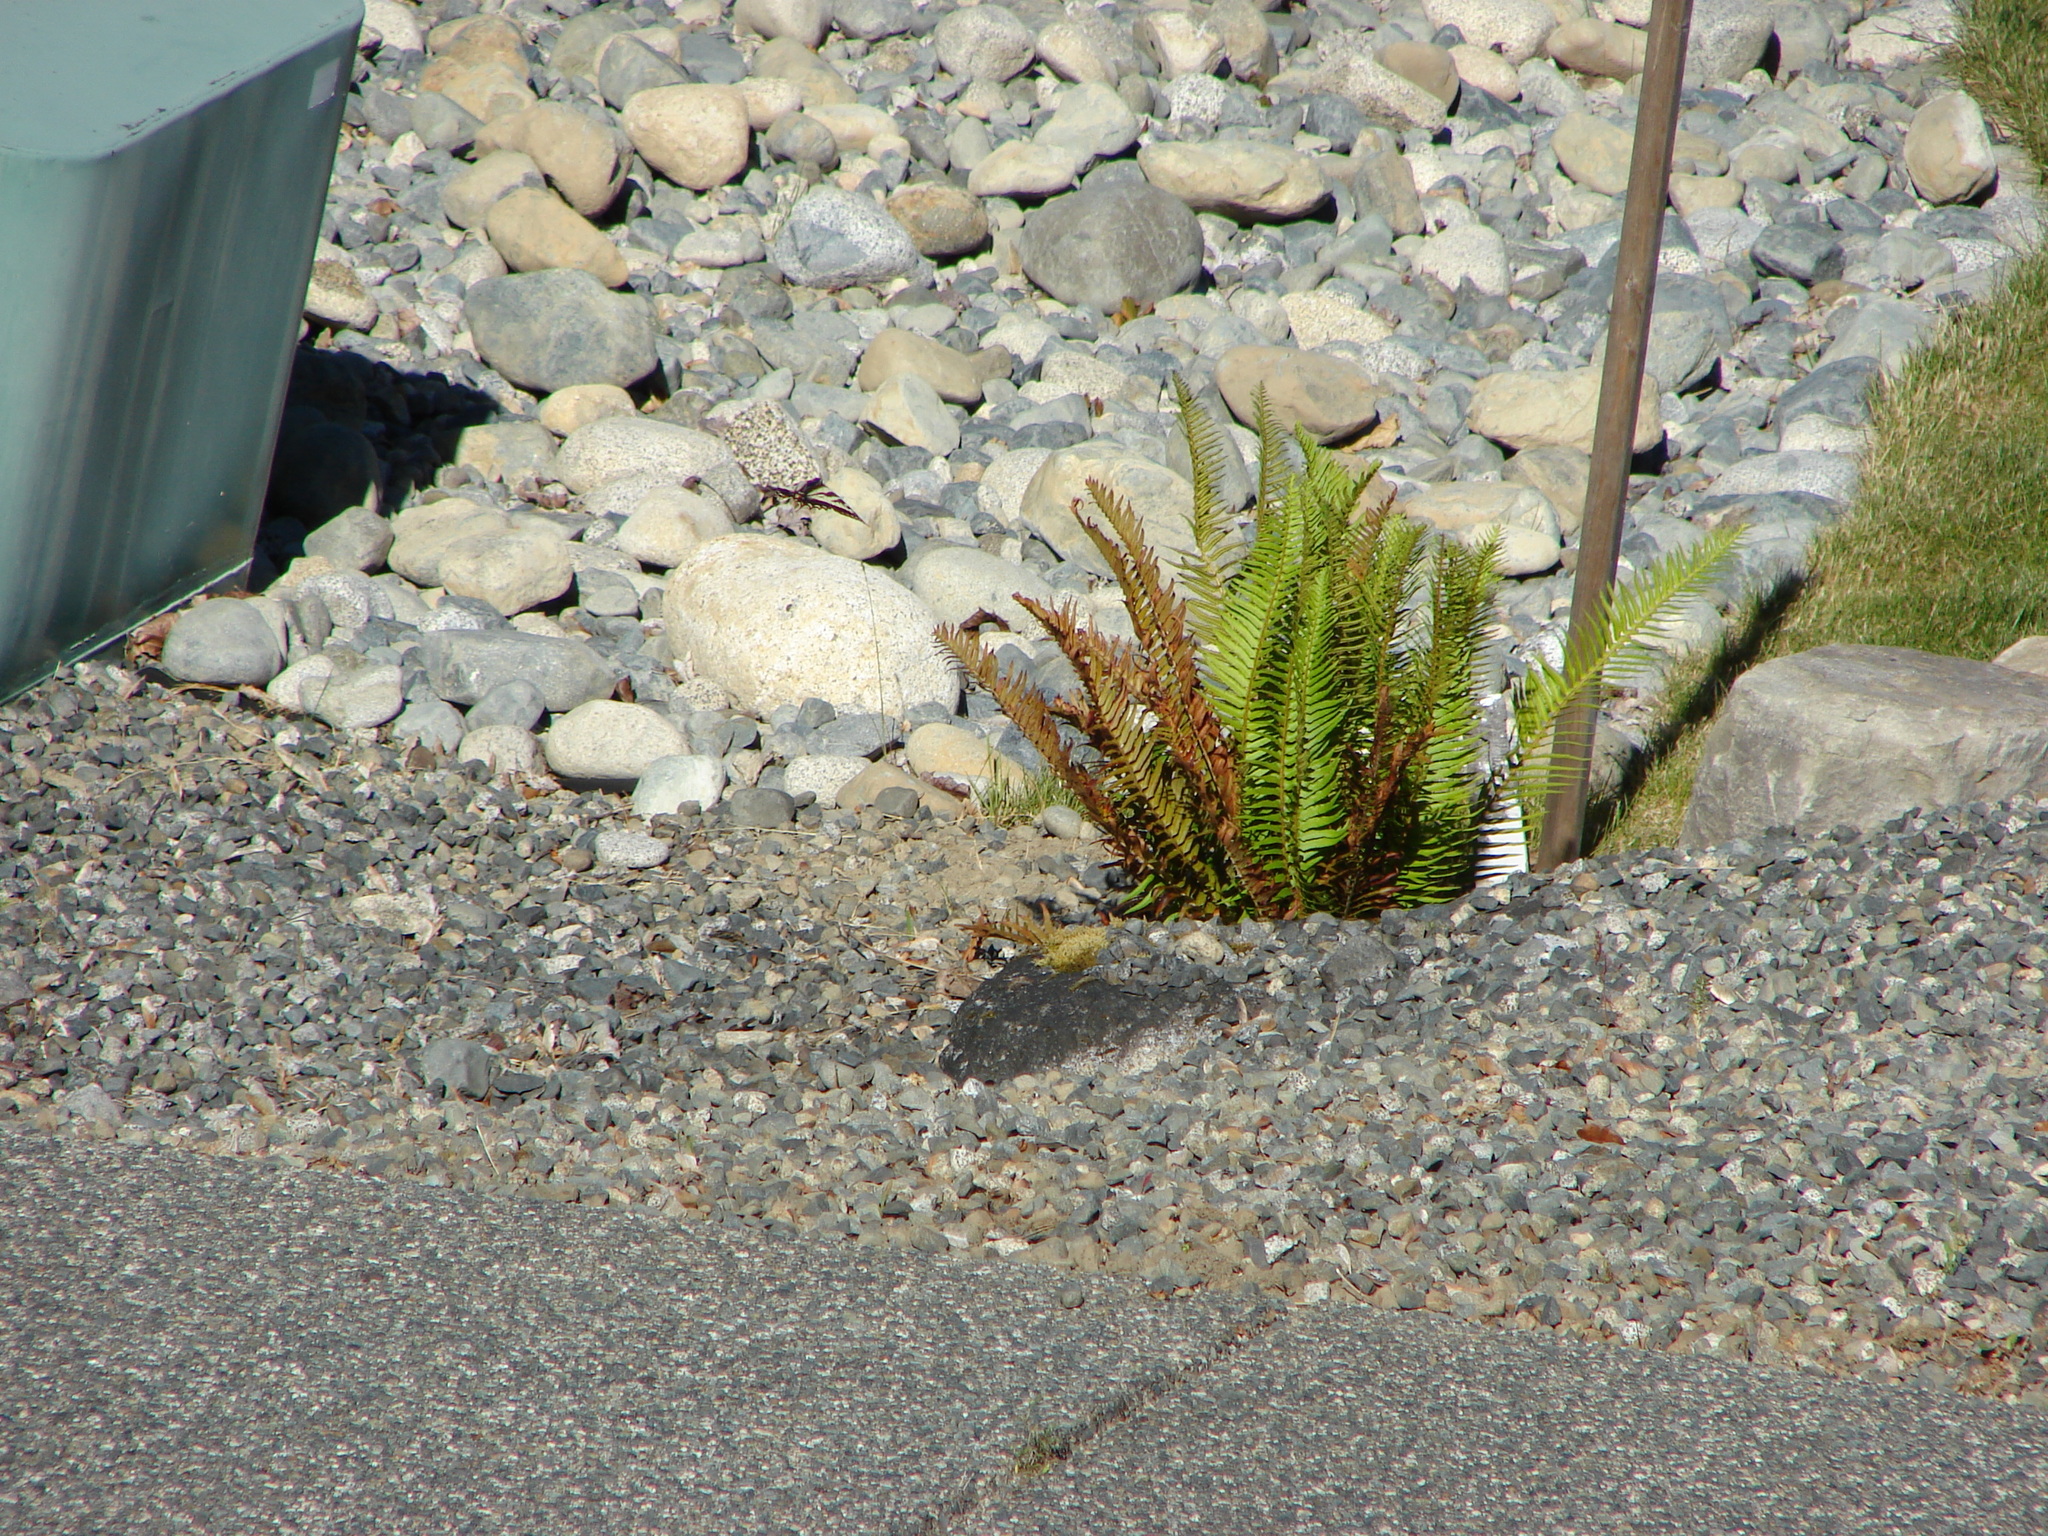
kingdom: Animalia
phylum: Arthropoda
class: Insecta
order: Lepidoptera
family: Papilionidae
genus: Papilio
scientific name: Papilio eurymedon
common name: Pale tiger swallowtail
